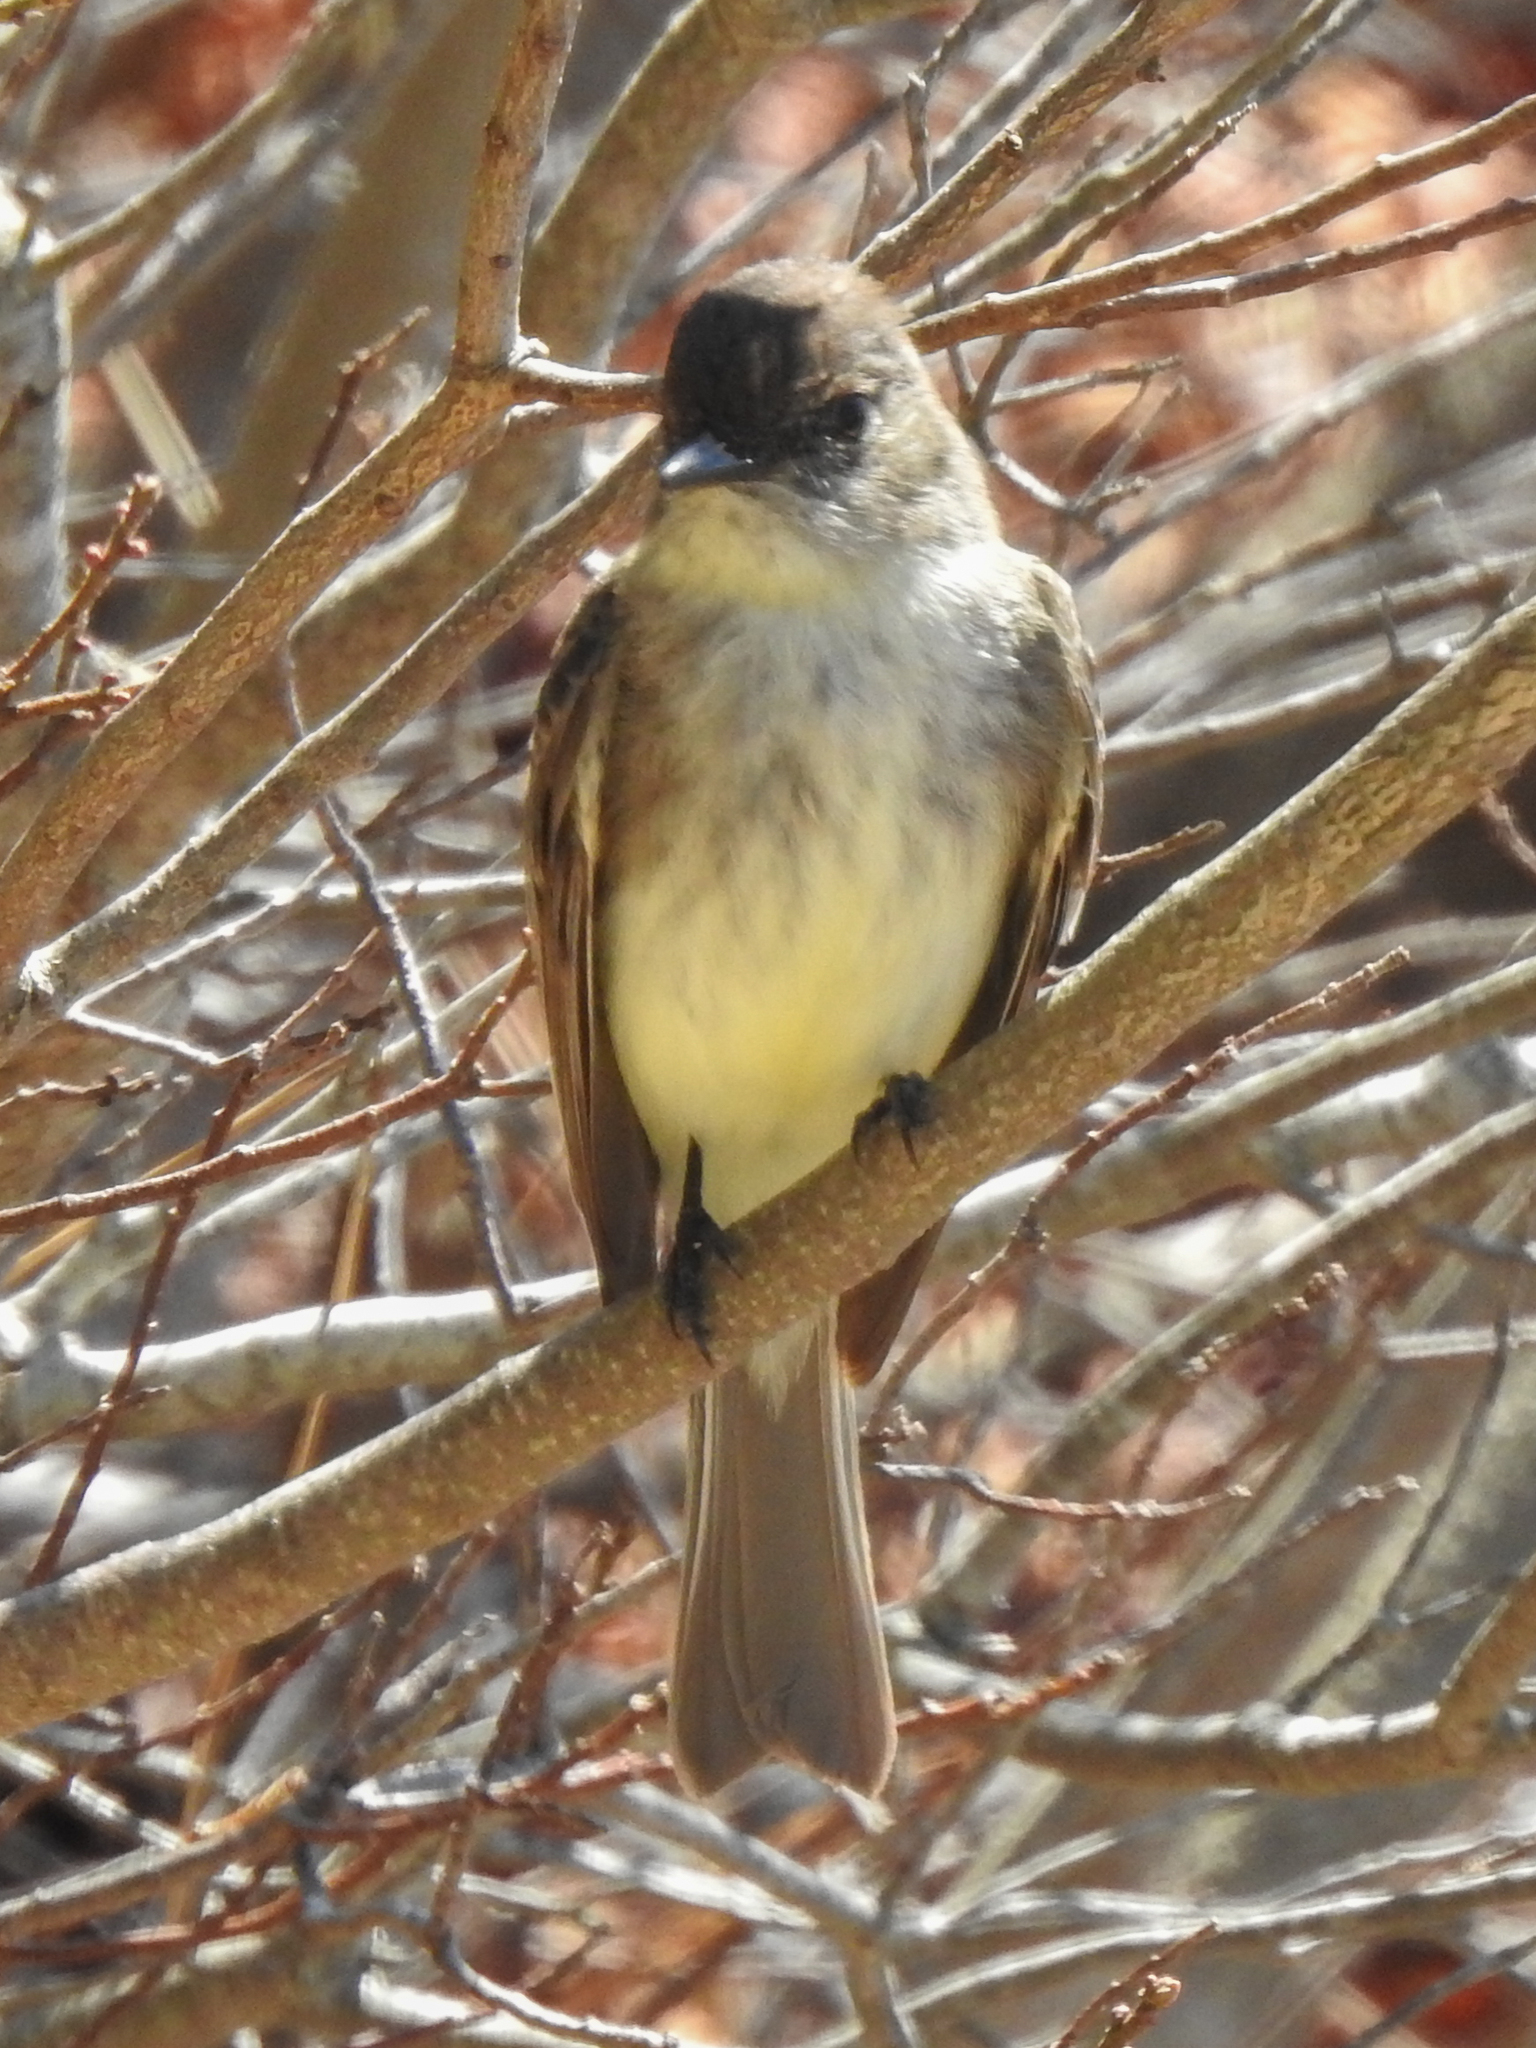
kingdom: Animalia
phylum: Chordata
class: Aves
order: Passeriformes
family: Tyrannidae
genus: Sayornis
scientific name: Sayornis phoebe
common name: Eastern phoebe
